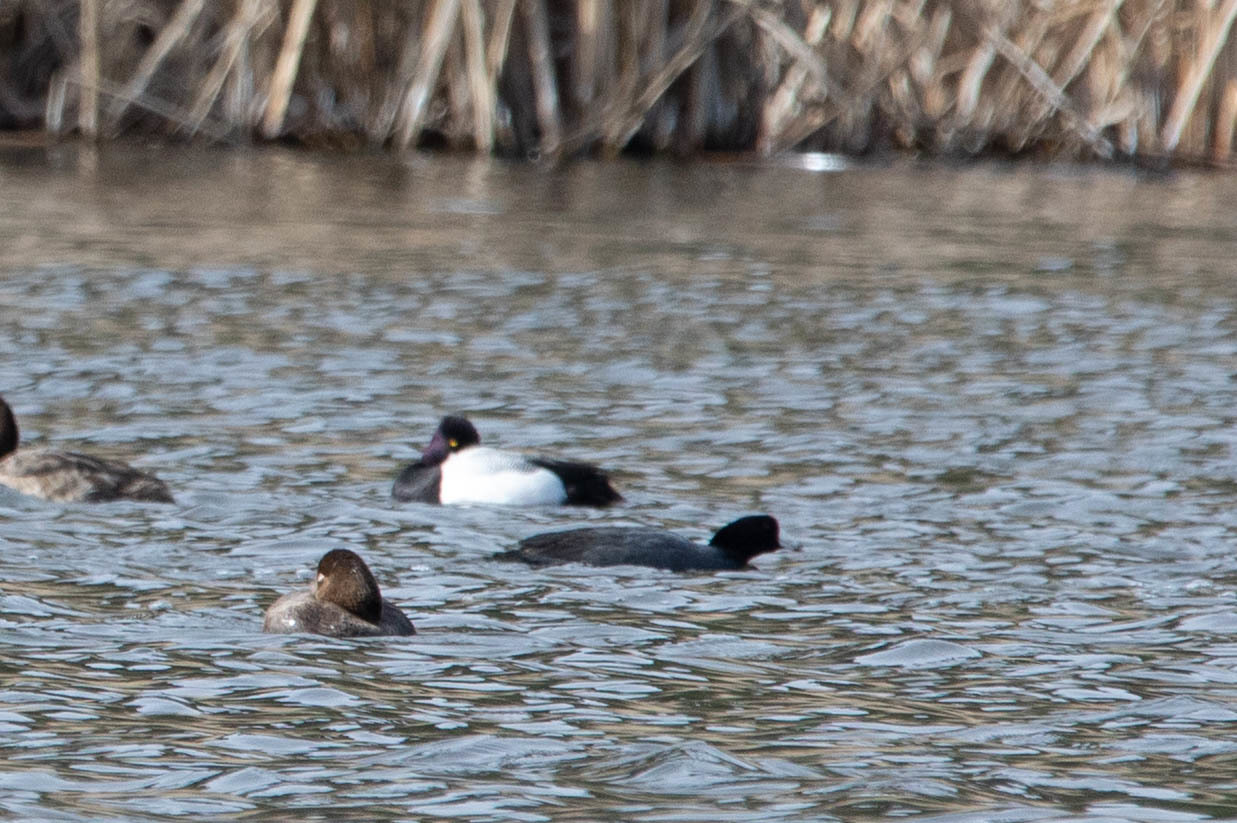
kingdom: Animalia
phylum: Chordata
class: Aves
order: Anseriformes
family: Anatidae
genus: Aythya
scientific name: Aythya affinis
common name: Lesser scaup
